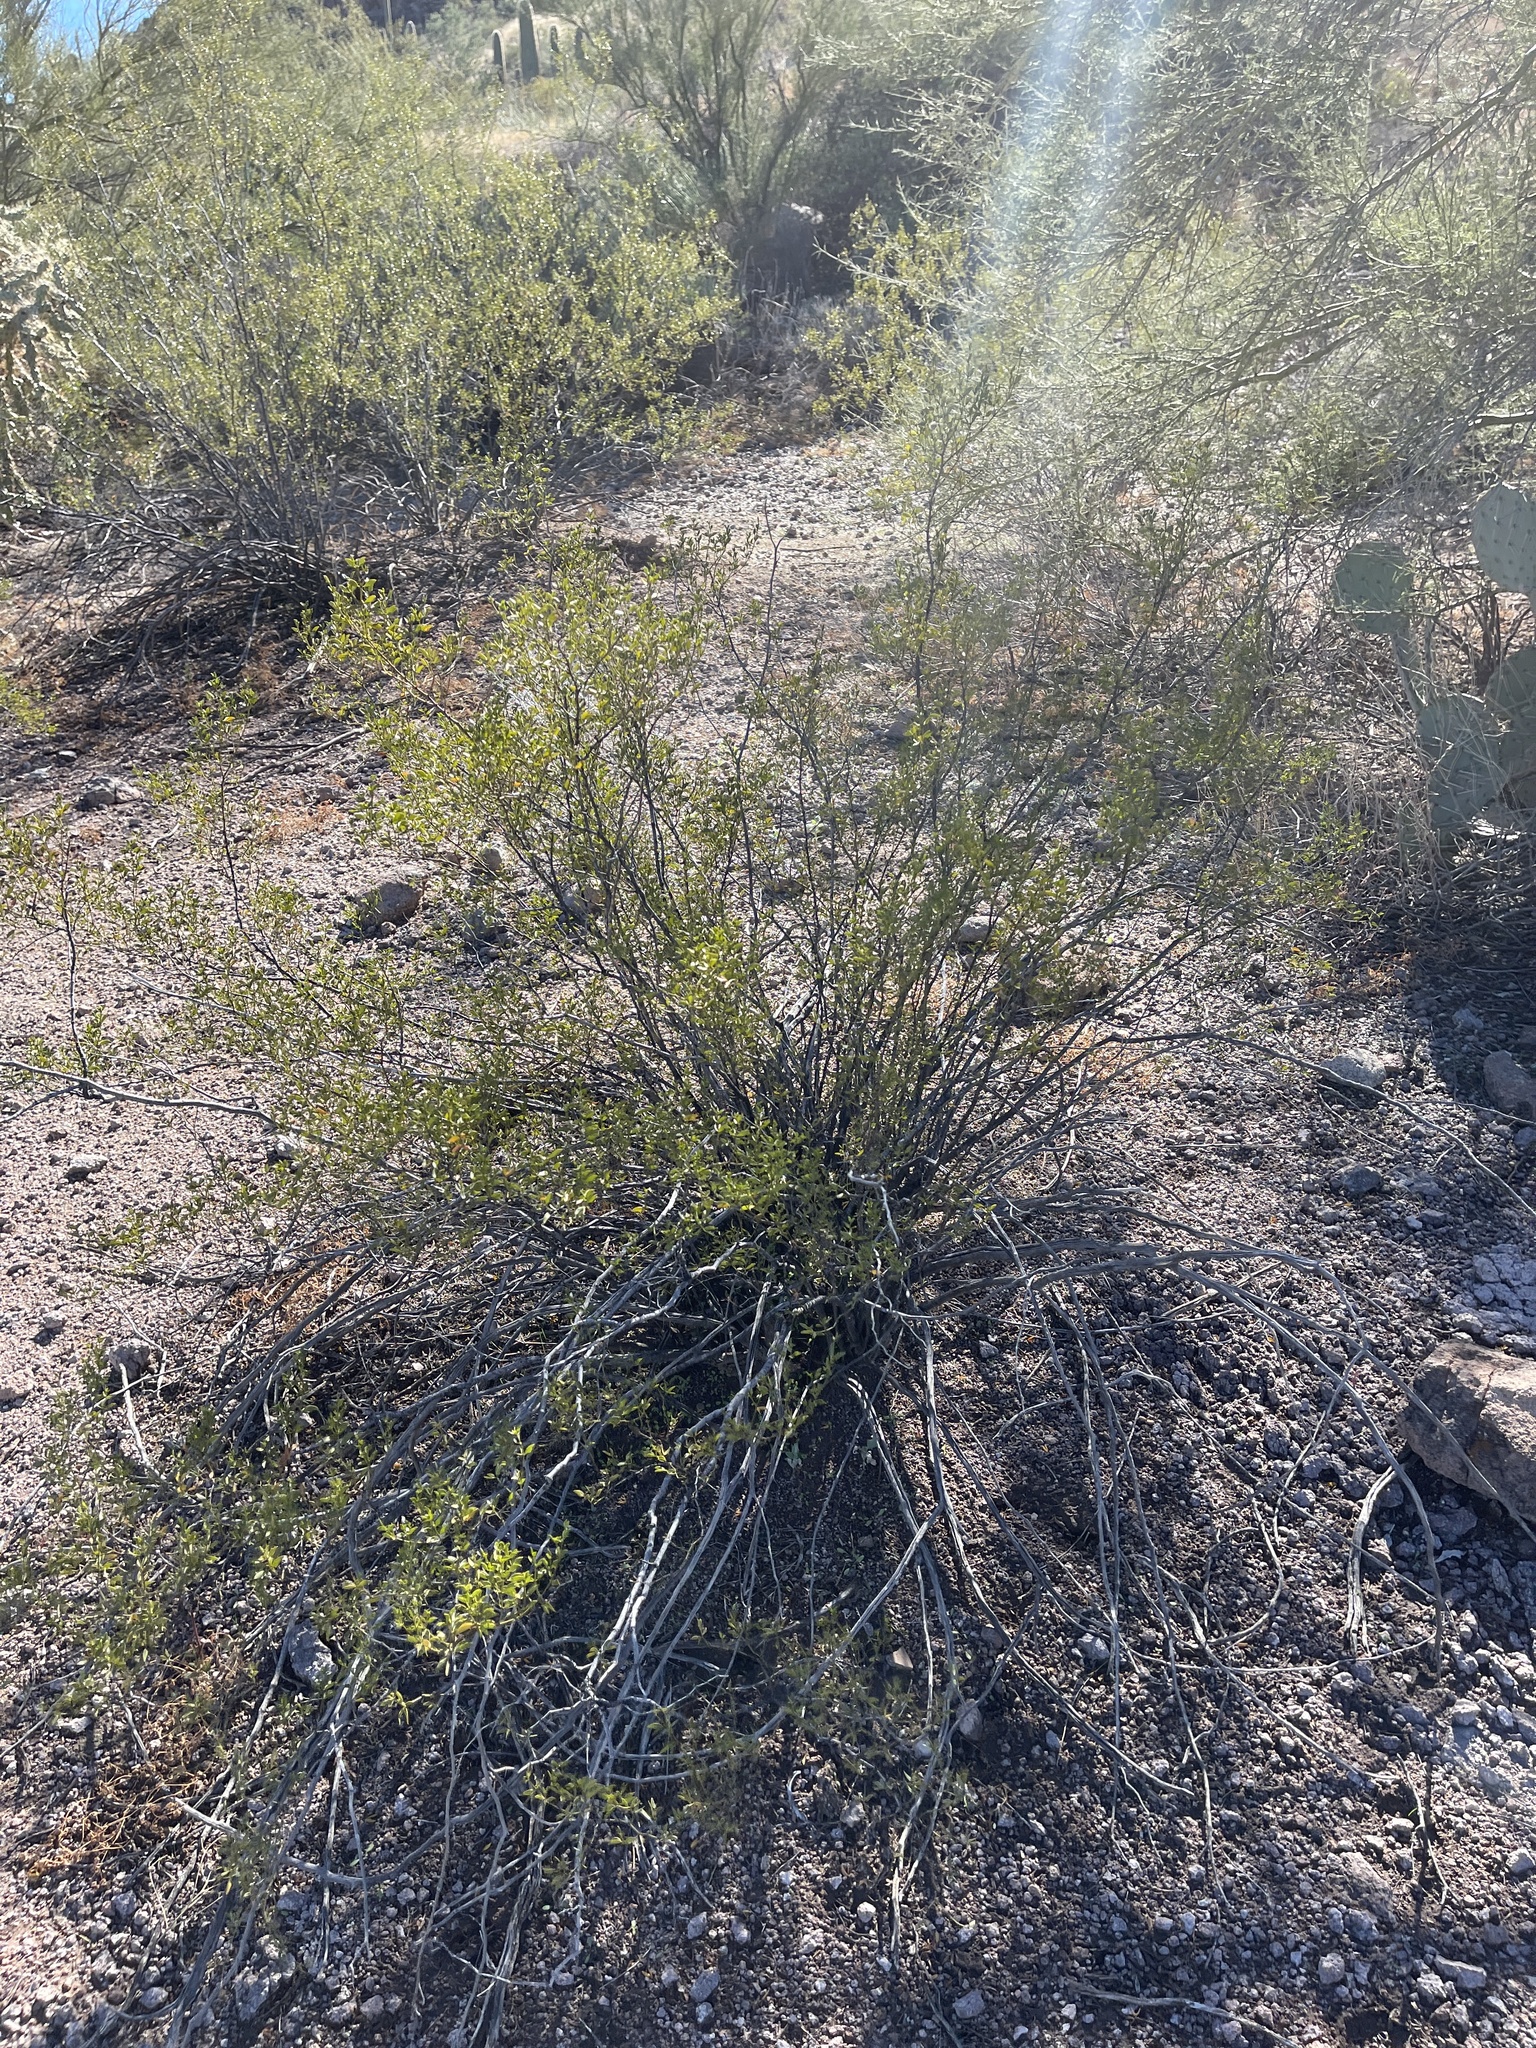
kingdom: Plantae
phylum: Tracheophyta
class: Magnoliopsida
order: Zygophyllales
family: Zygophyllaceae
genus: Larrea
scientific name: Larrea tridentata
